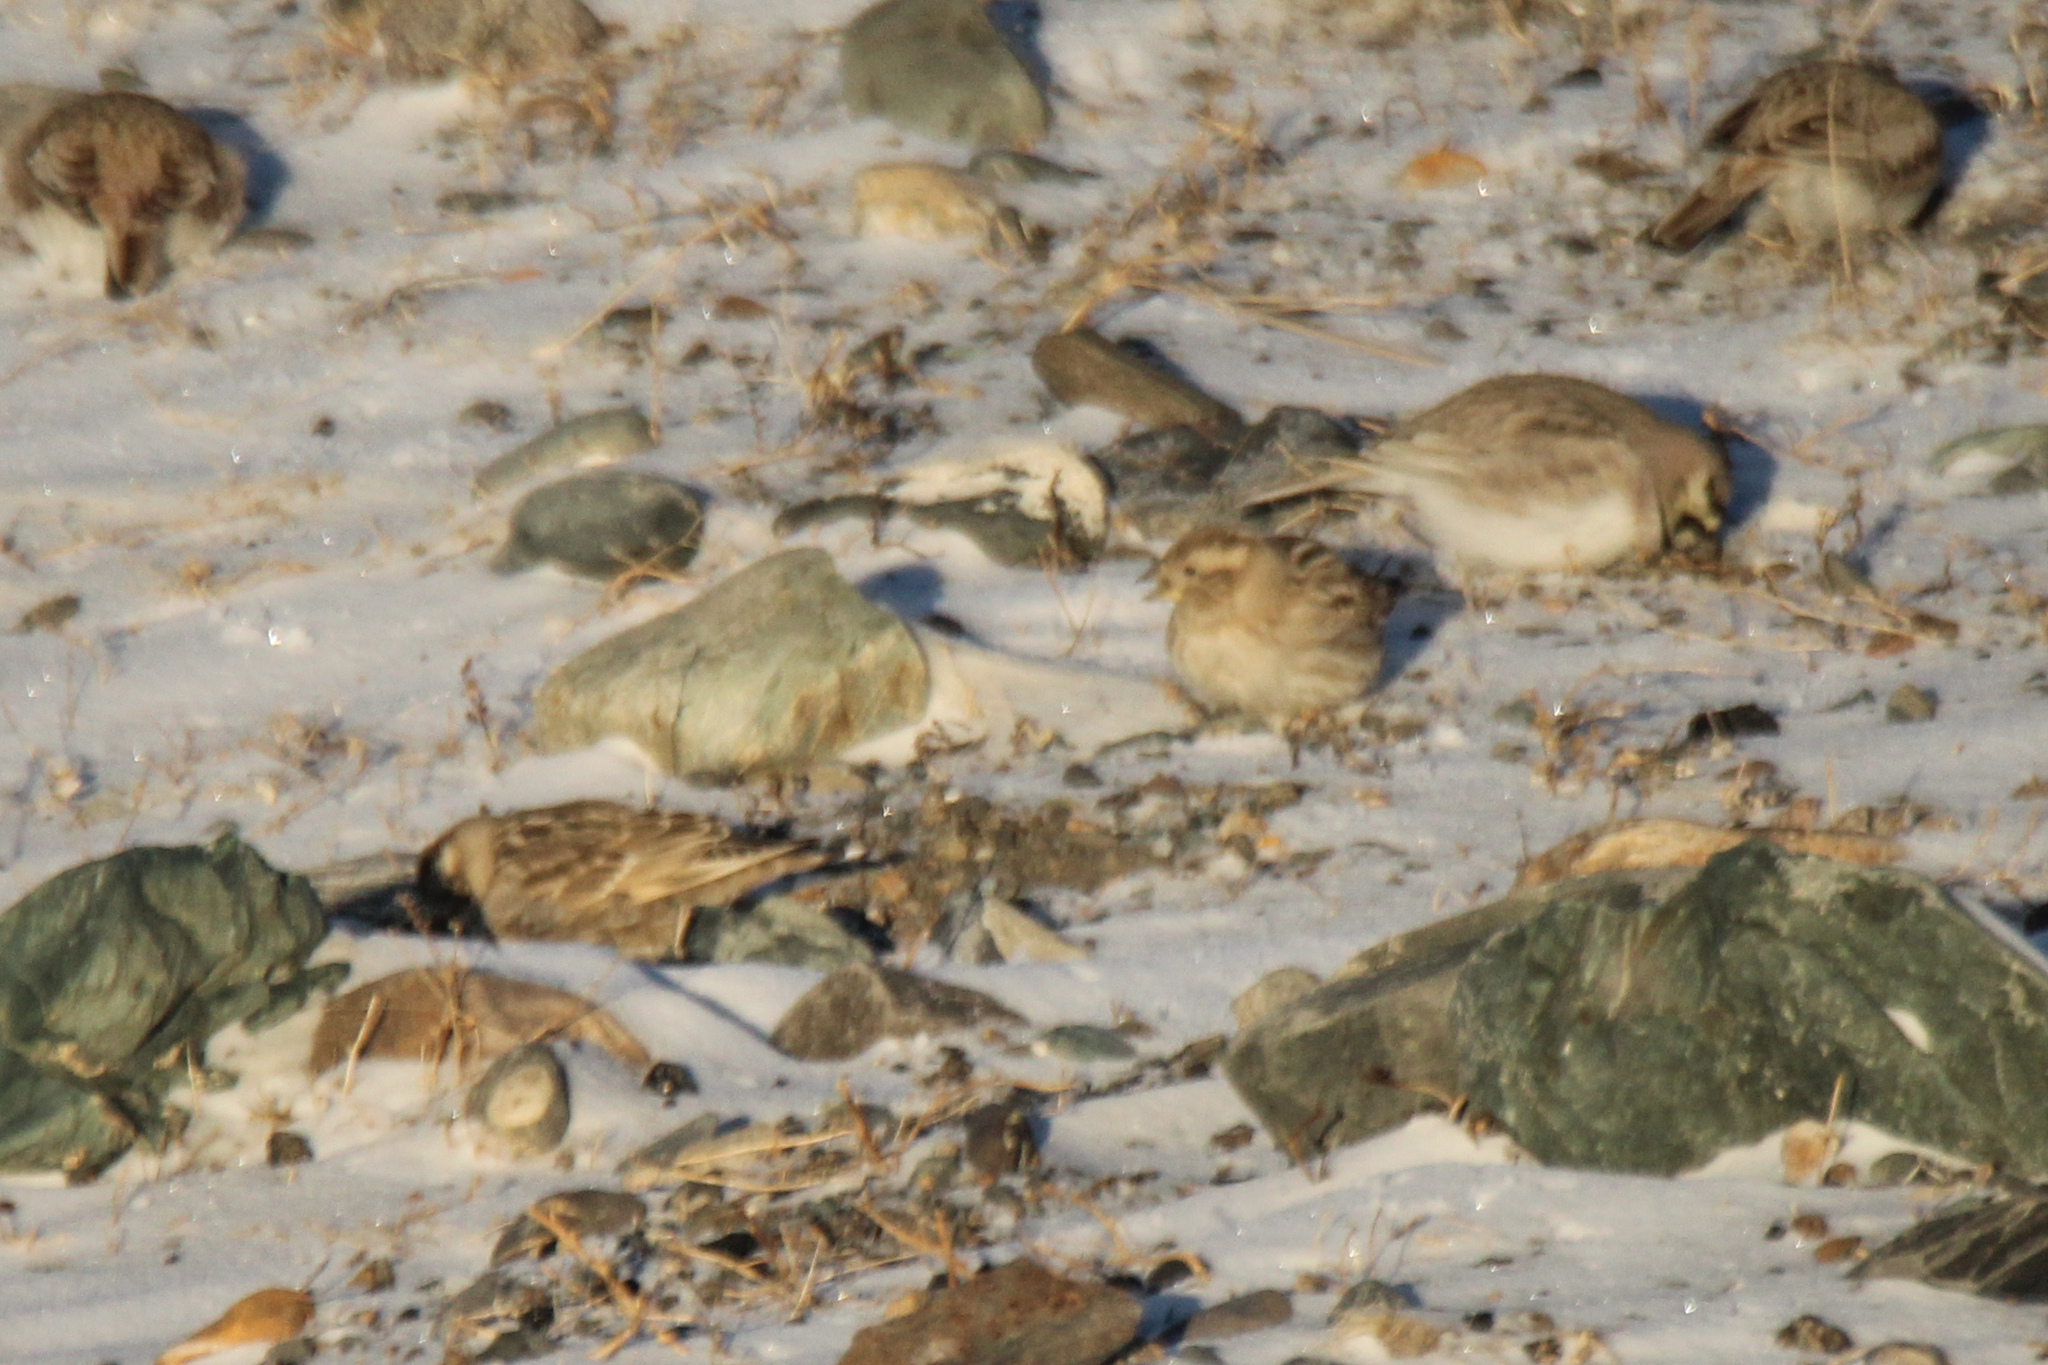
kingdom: Animalia
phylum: Chordata
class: Aves
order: Passeriformes
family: Passeridae
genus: Petronia
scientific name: Petronia petronia
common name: Rock sparrow
